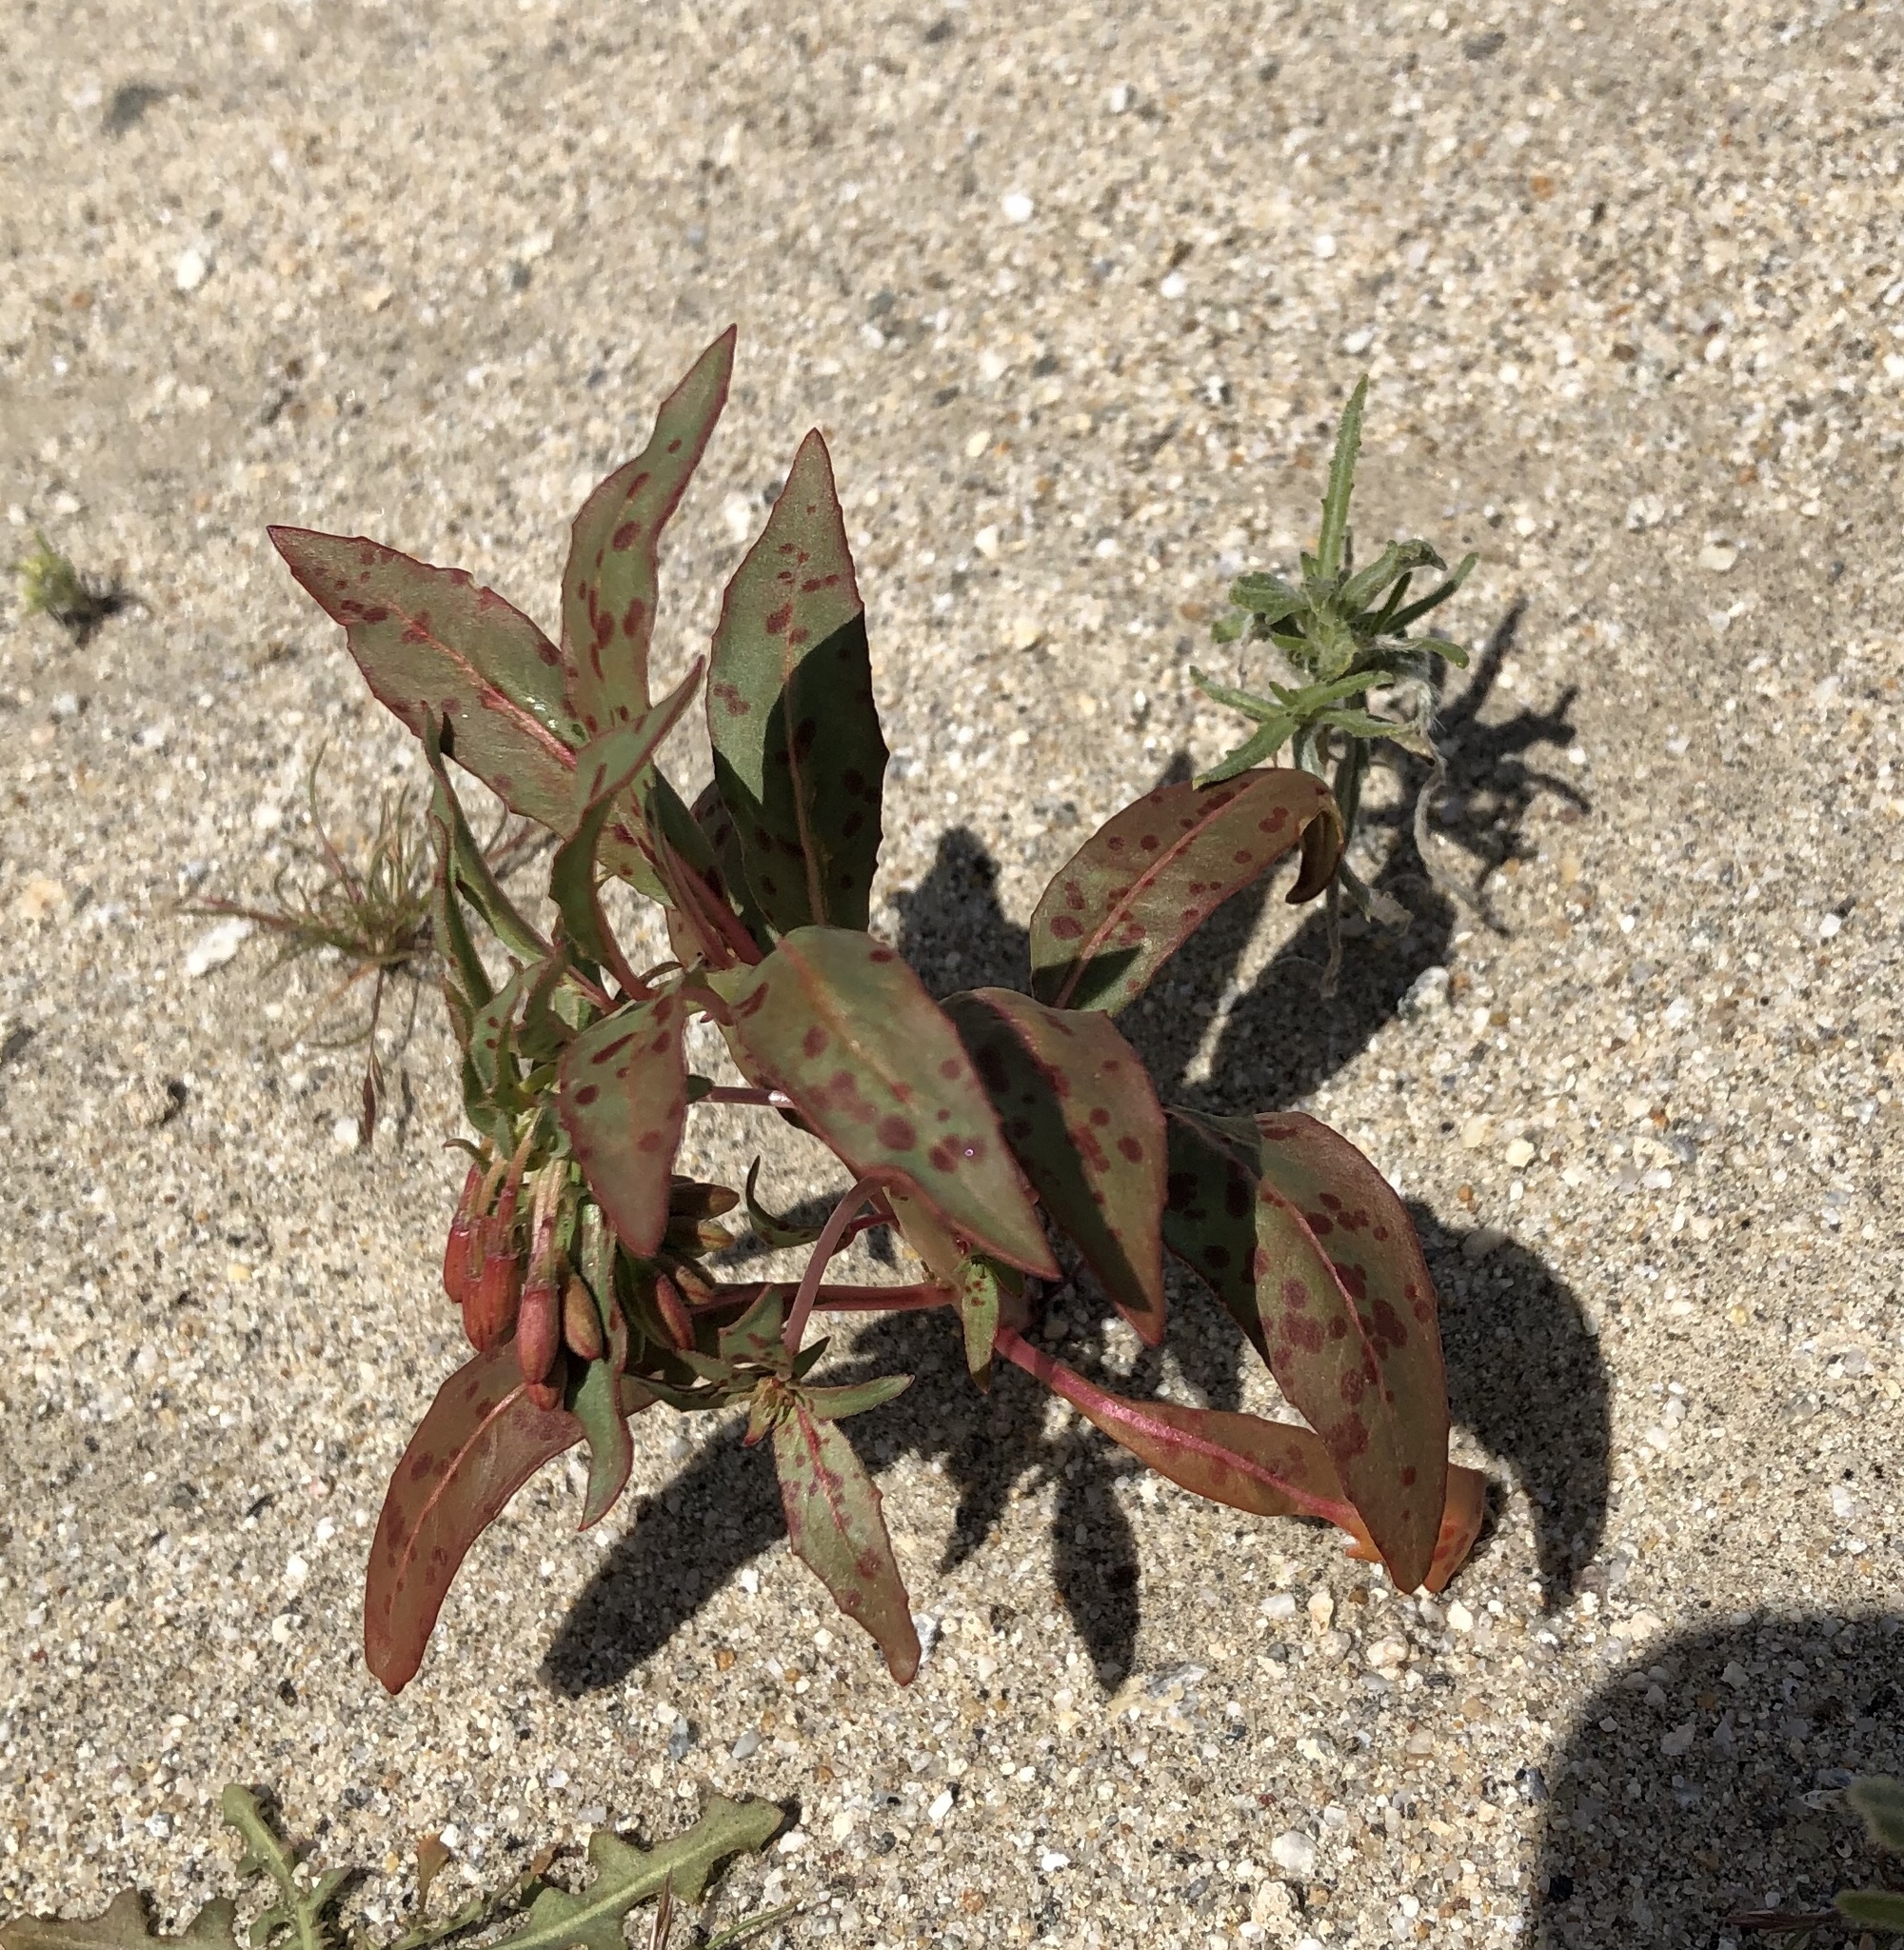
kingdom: Plantae
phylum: Tracheophyta
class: Magnoliopsida
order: Myrtales
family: Onagraceae
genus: Eremothera
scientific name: Eremothera boothii
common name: Booth's evening primrose
